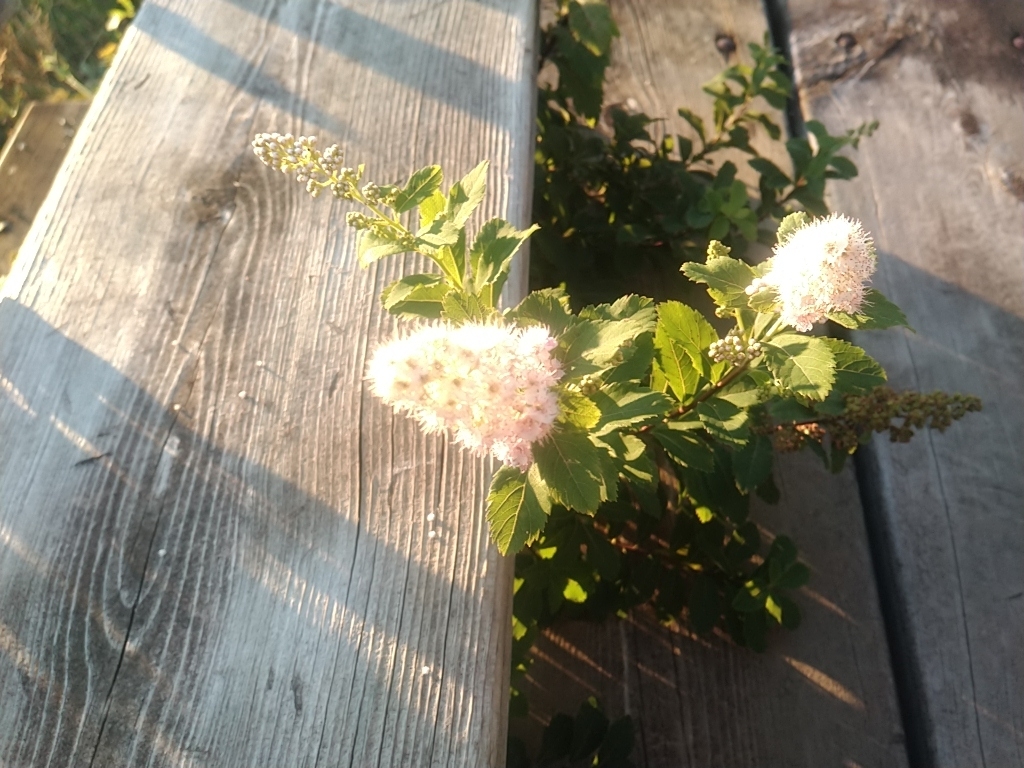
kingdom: Plantae
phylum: Tracheophyta
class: Magnoliopsida
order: Rosales
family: Rosaceae
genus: Spiraea
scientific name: Spiraea alba
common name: Pale bridewort
